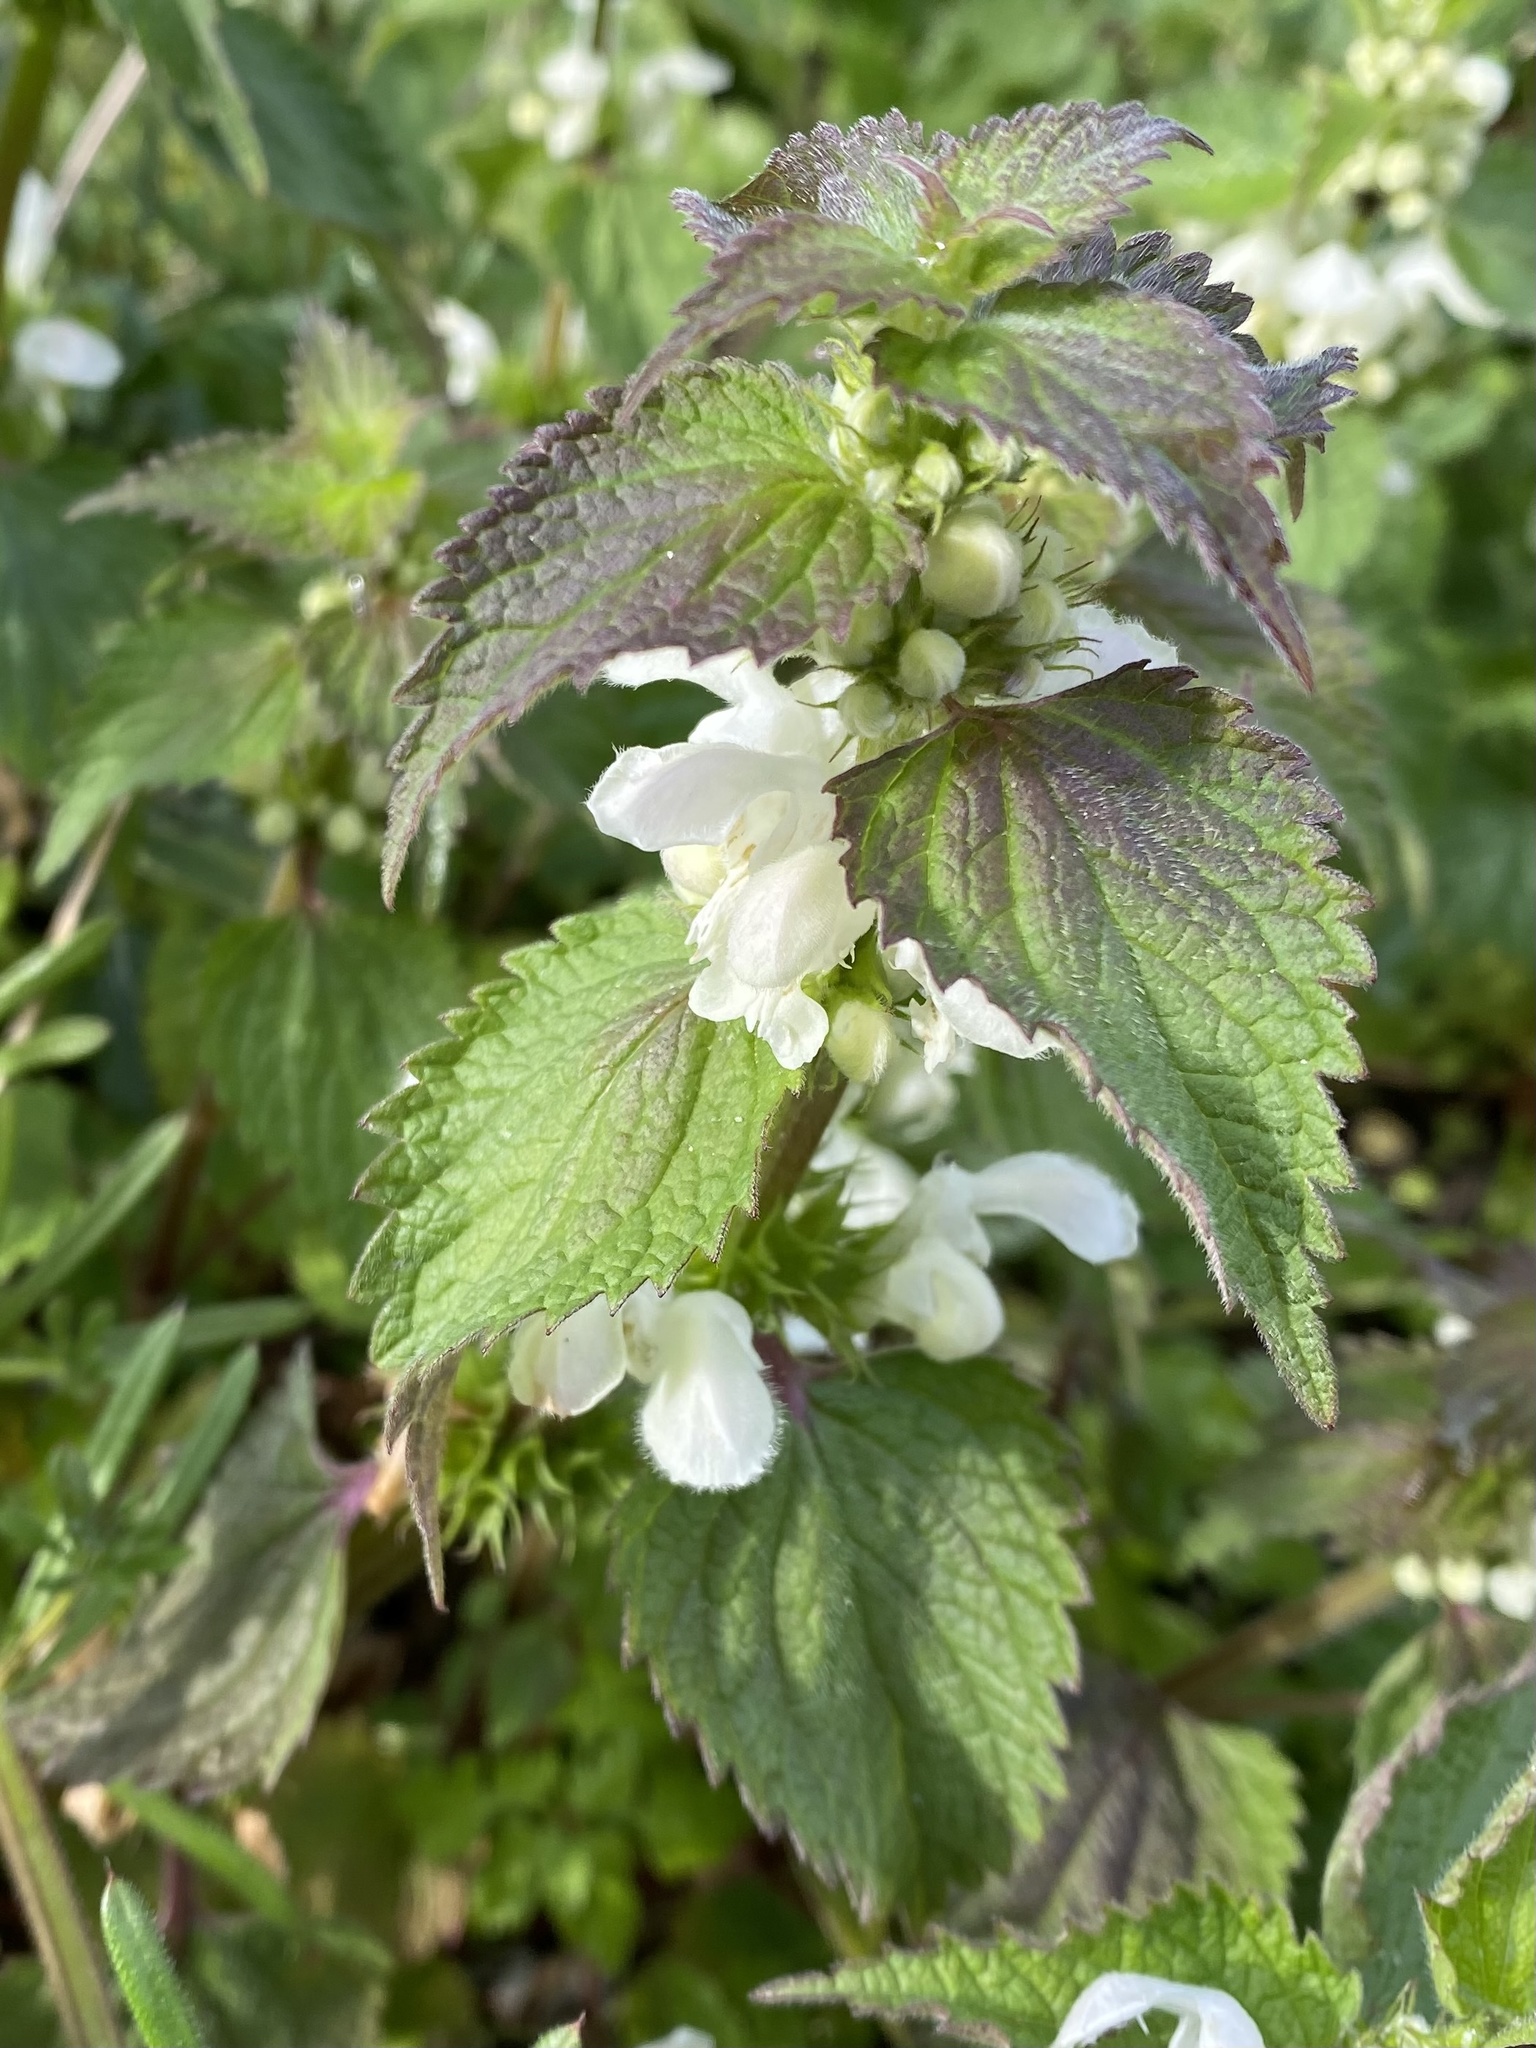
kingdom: Plantae
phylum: Tracheophyta
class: Magnoliopsida
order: Lamiales
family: Lamiaceae
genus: Lamium
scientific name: Lamium album
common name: White dead-nettle
